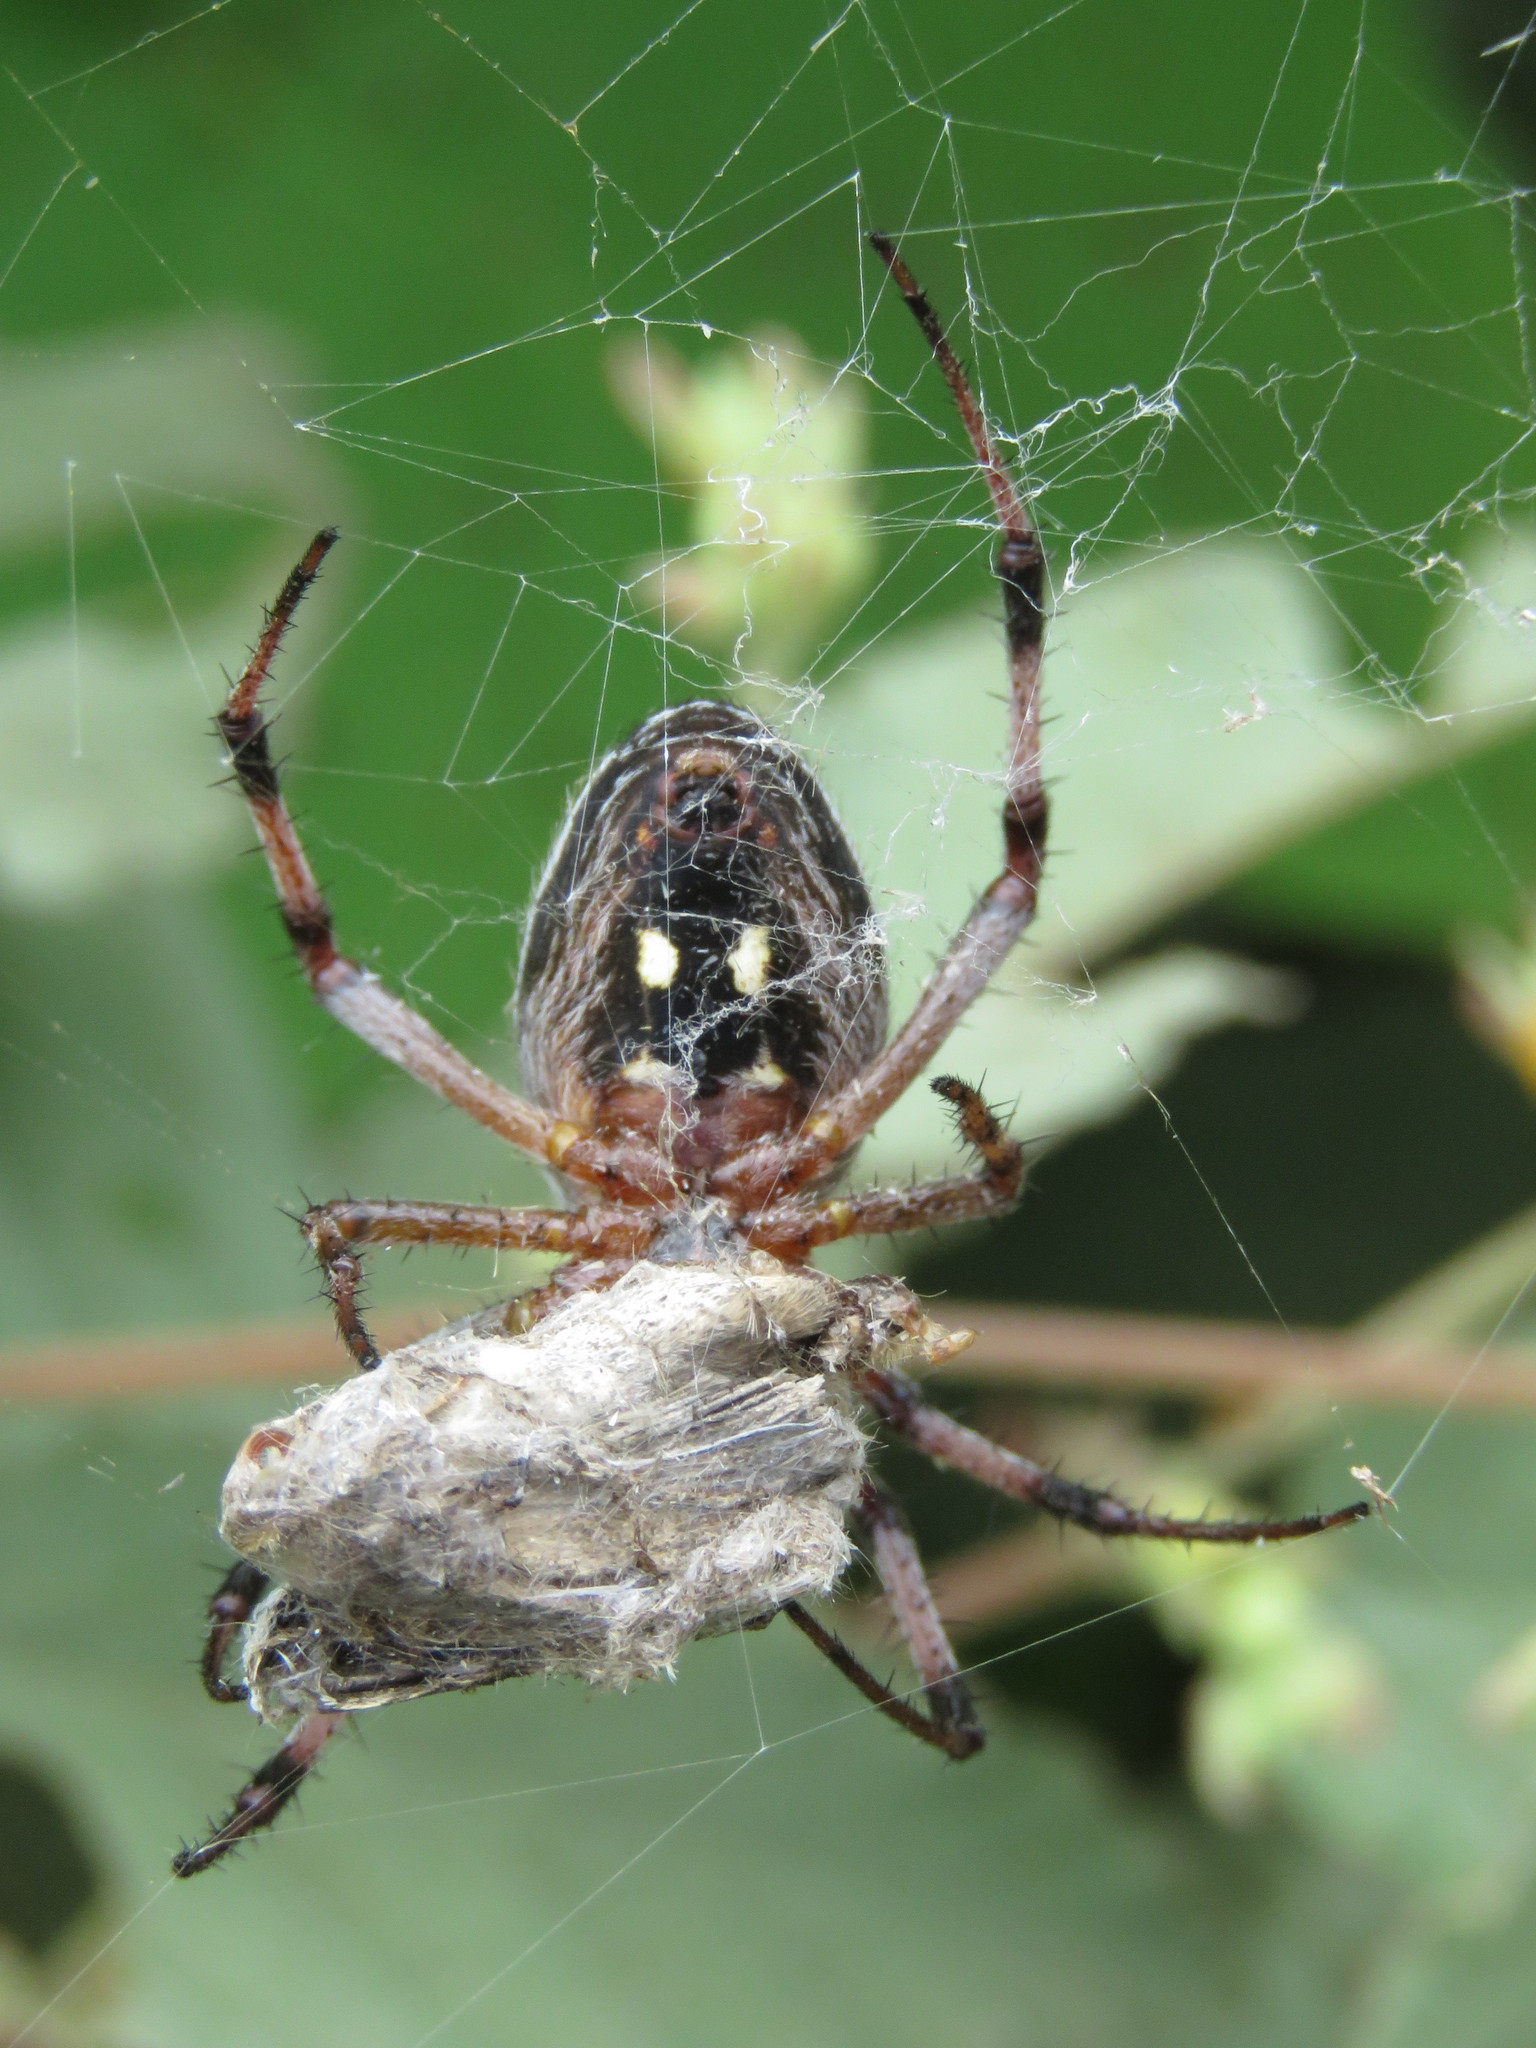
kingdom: Animalia
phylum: Arthropoda
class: Arachnida
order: Araneae
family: Araneidae
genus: Neoscona
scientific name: Neoscona oaxacensis
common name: Orb weavers
